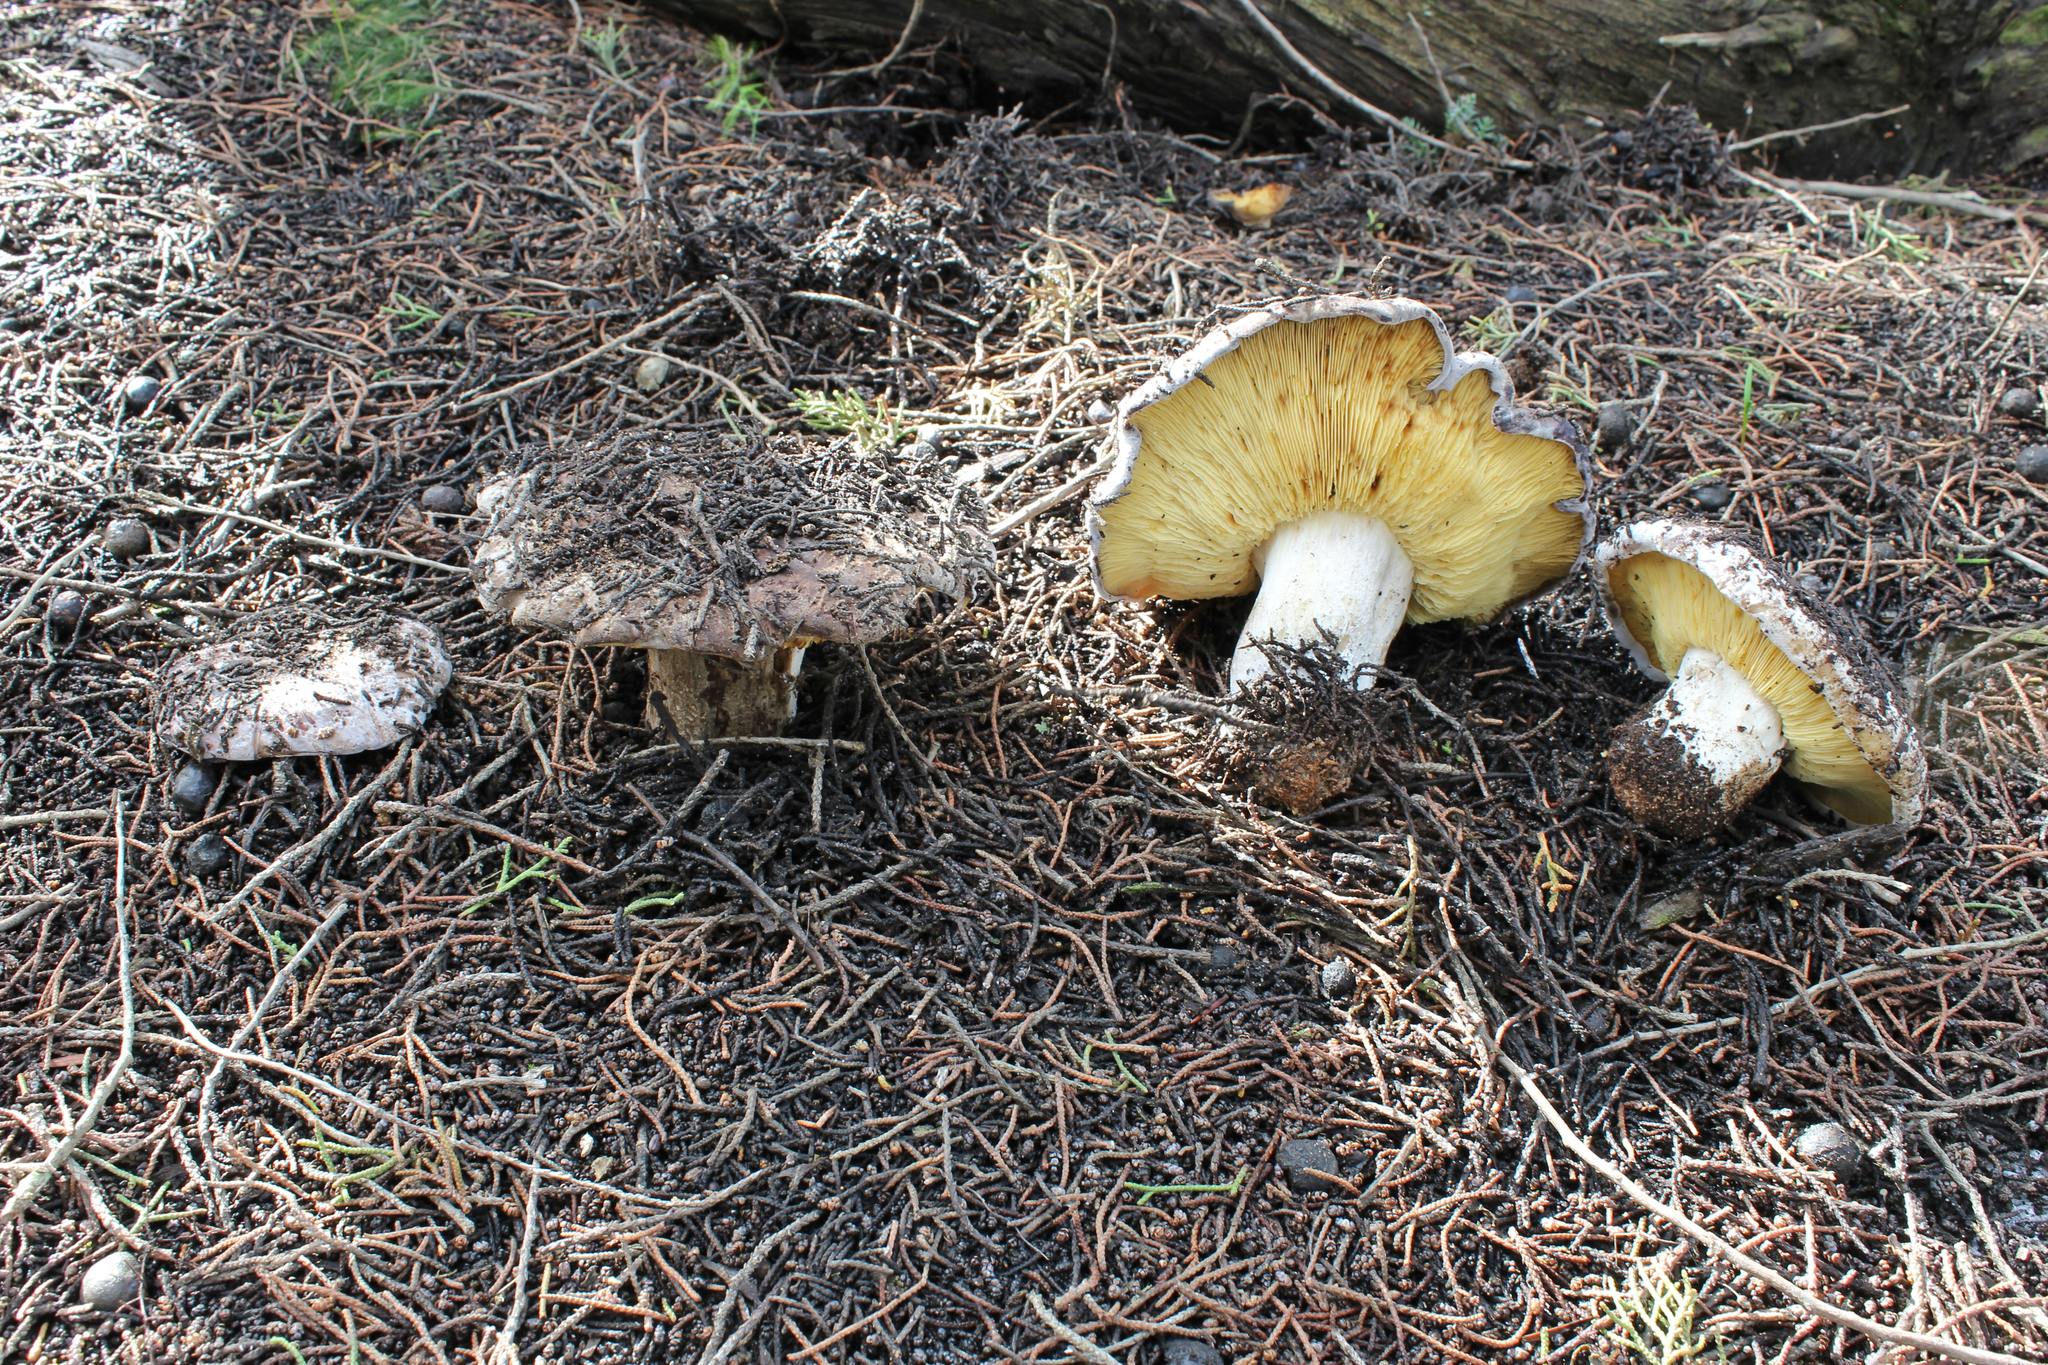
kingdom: Fungi
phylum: Basidiomycota
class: Agaricomycetes
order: Agaricales
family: Lyophyllaceae
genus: Calocybe
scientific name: Calocybe hypoxantha
